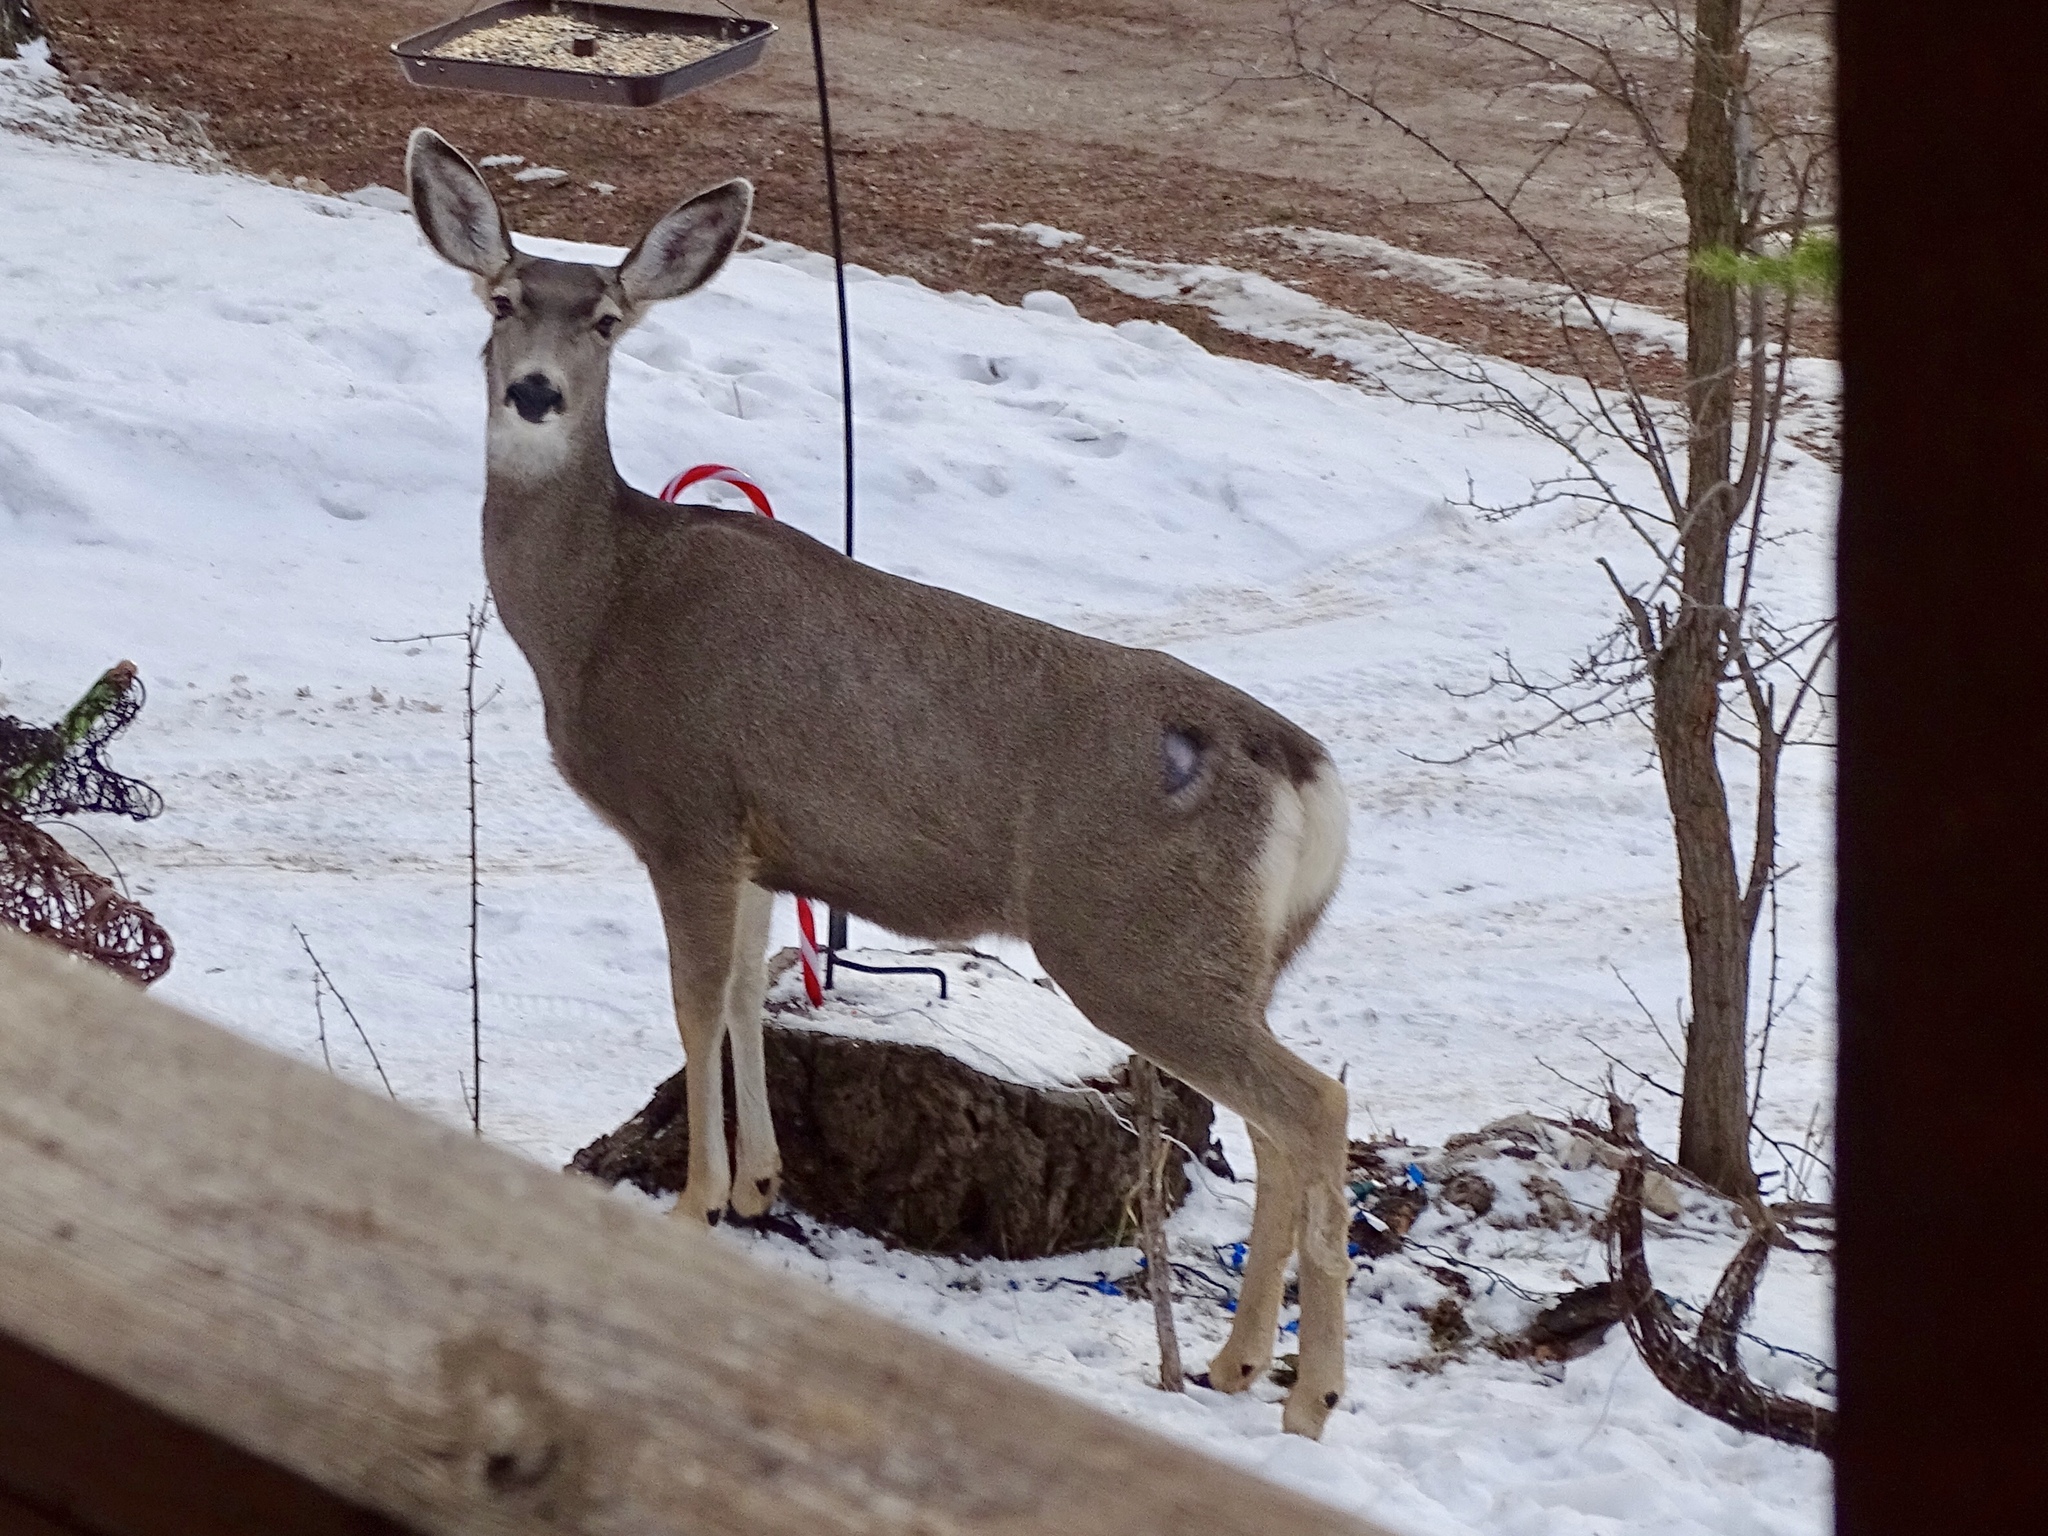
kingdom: Animalia
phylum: Chordata
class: Mammalia
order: Artiodactyla
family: Cervidae
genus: Odocoileus
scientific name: Odocoileus hemionus
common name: Mule deer
